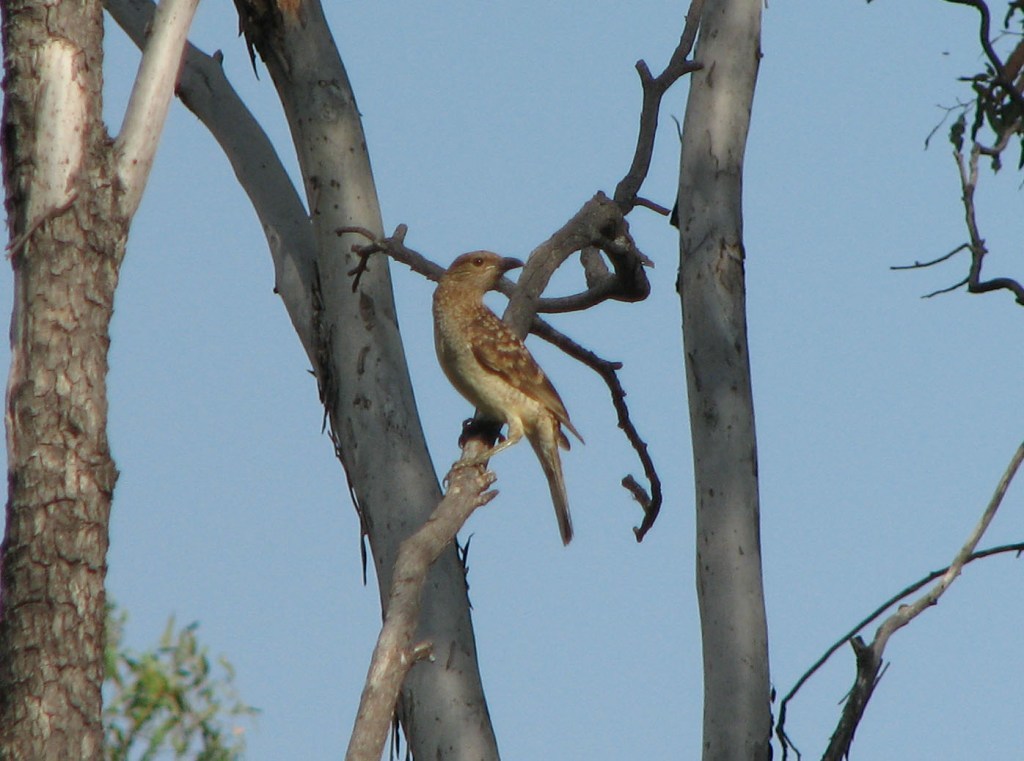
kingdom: Animalia
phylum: Chordata
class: Aves
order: Passeriformes
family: Ptilonorhynchidae
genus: Chlamydera
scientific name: Chlamydera maculata
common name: Spotted bowerbird
